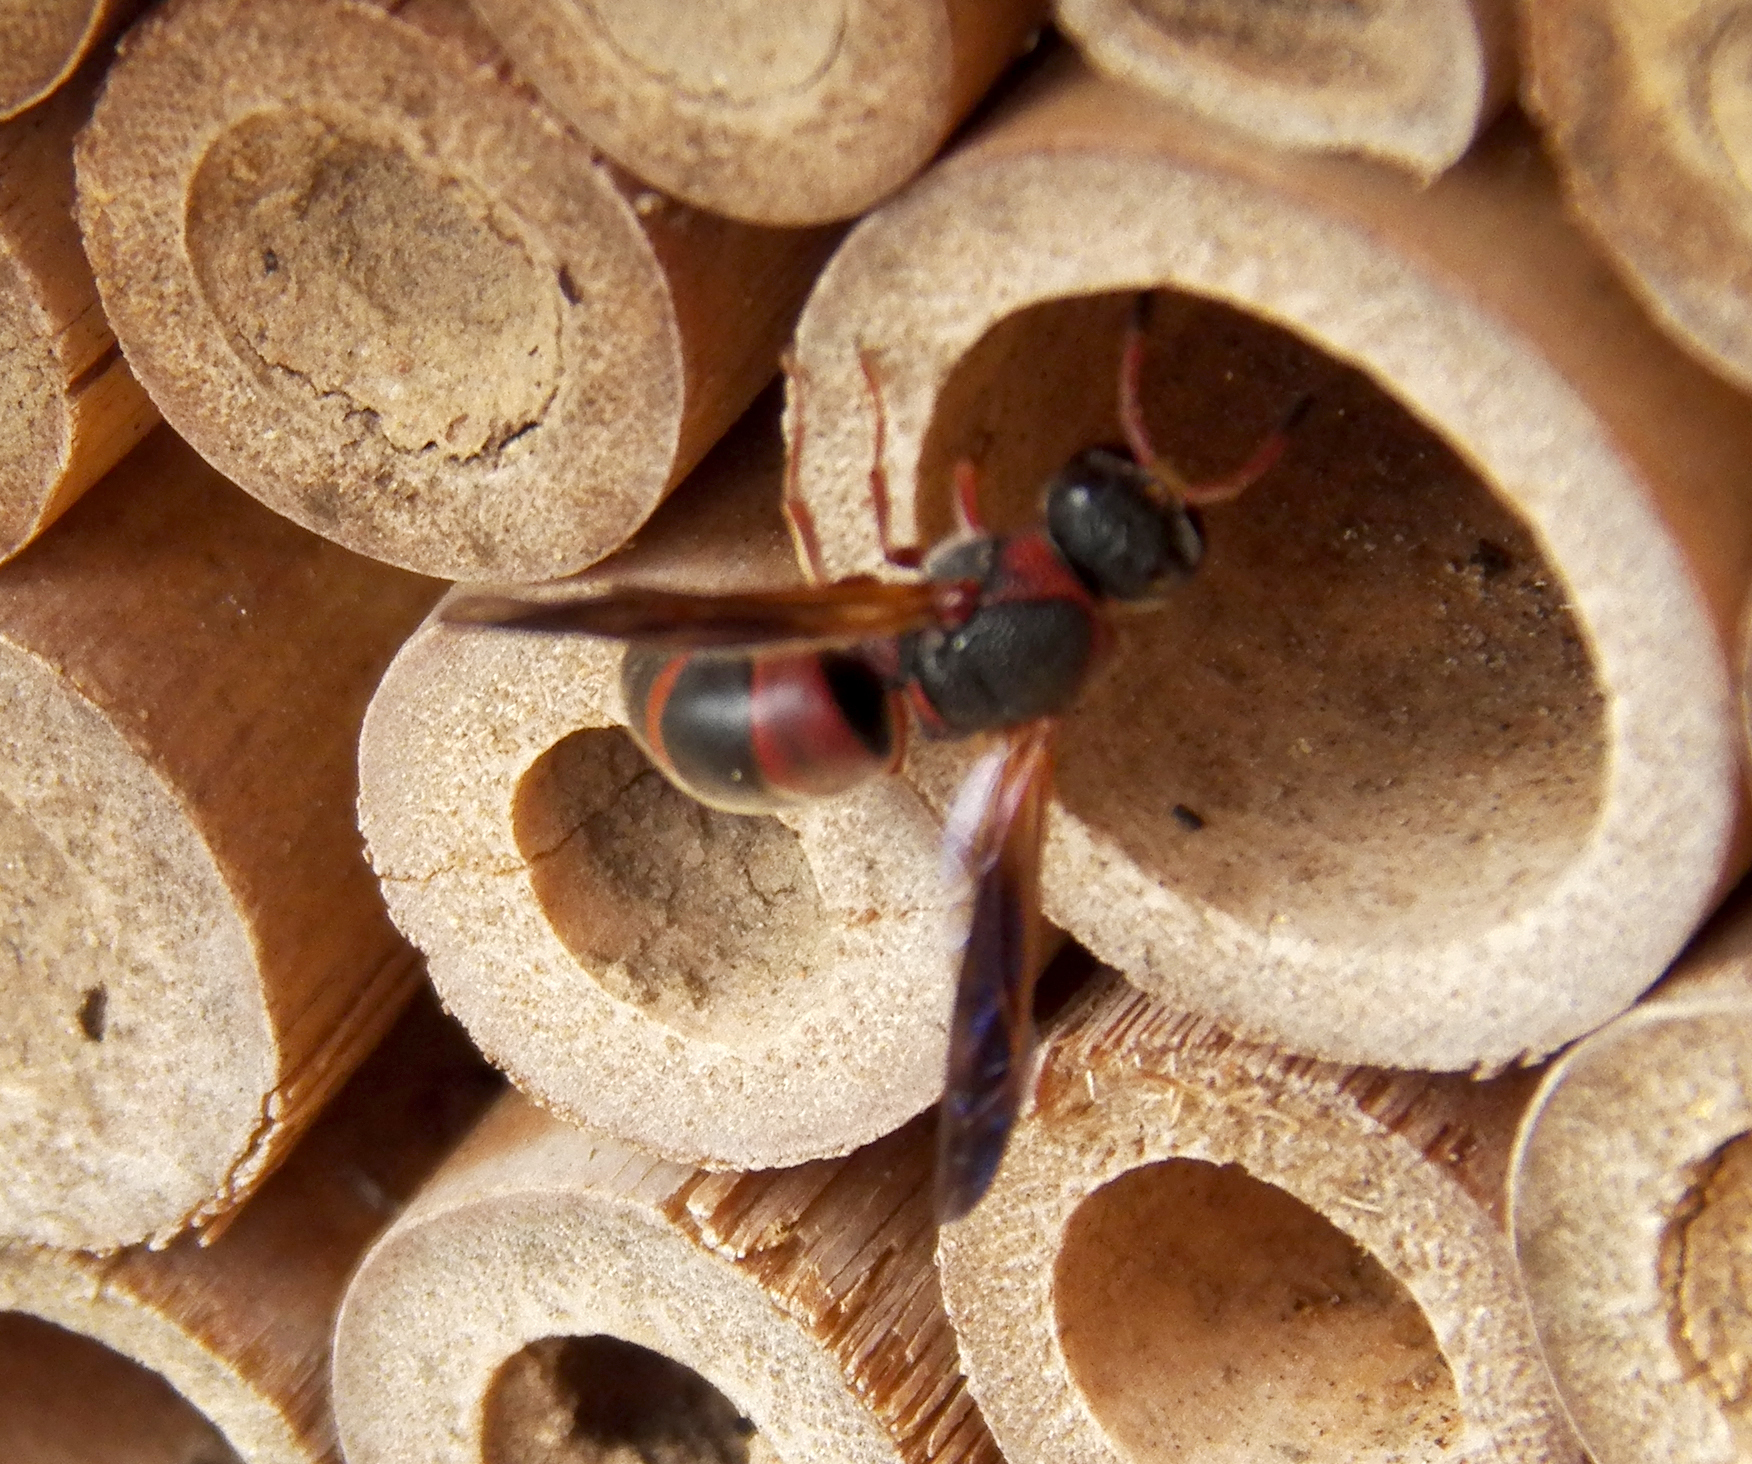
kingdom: Animalia
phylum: Arthropoda
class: Insecta
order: Hymenoptera
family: Eumenidae
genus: Pachodynerus
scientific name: Pachodynerus erynnis
